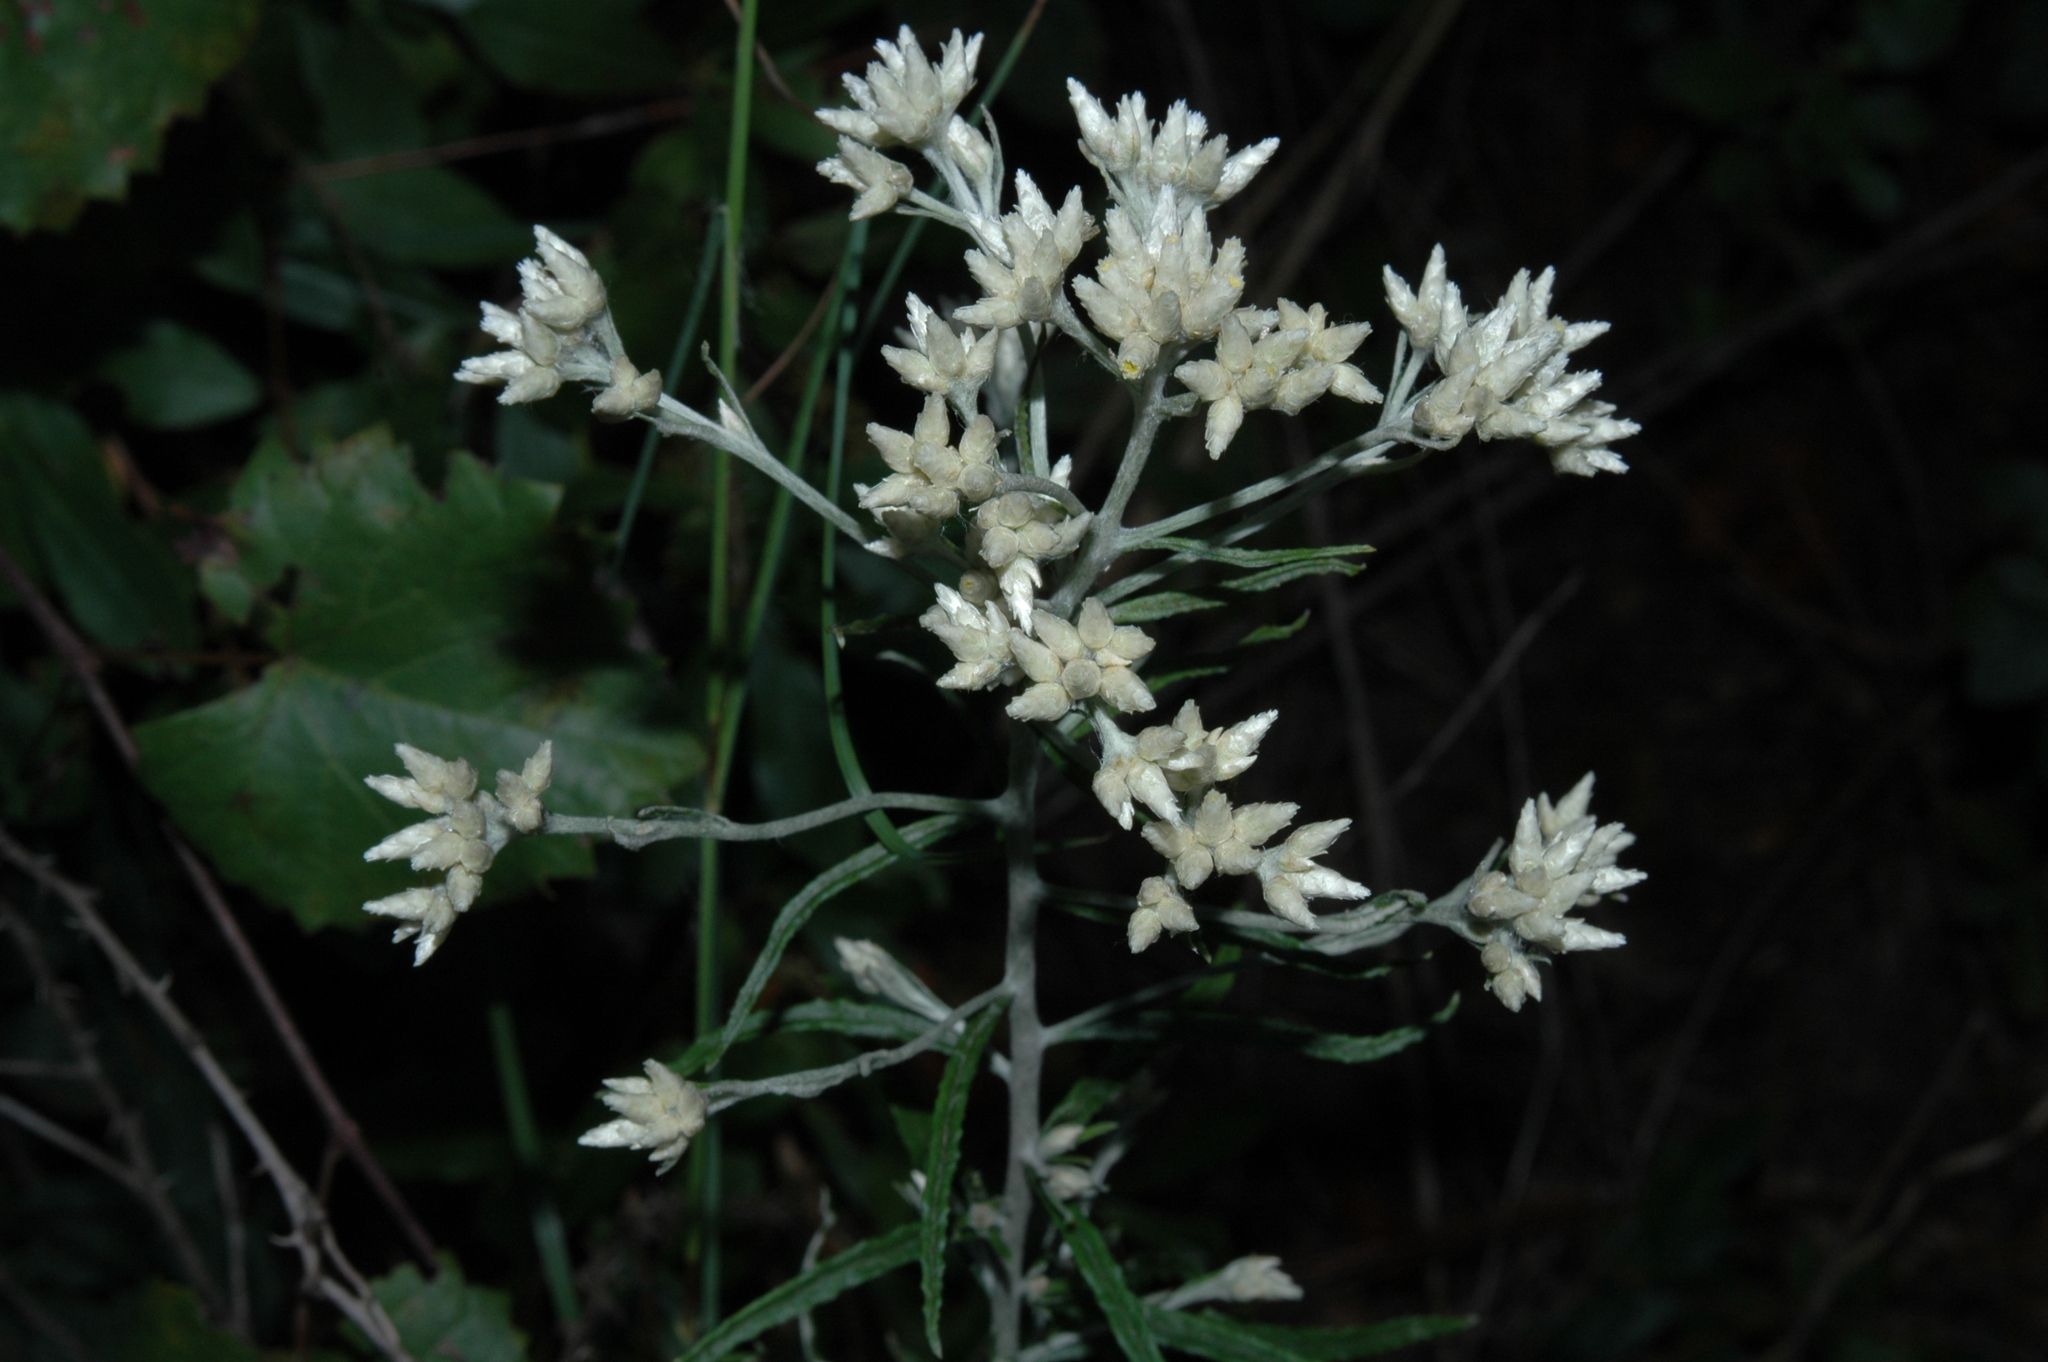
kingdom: Plantae
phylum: Tracheophyta
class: Magnoliopsida
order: Asterales
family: Asteraceae
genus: Pseudognaphalium
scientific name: Pseudognaphalium obtusifolium
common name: Eastern rabbit-tobacco
